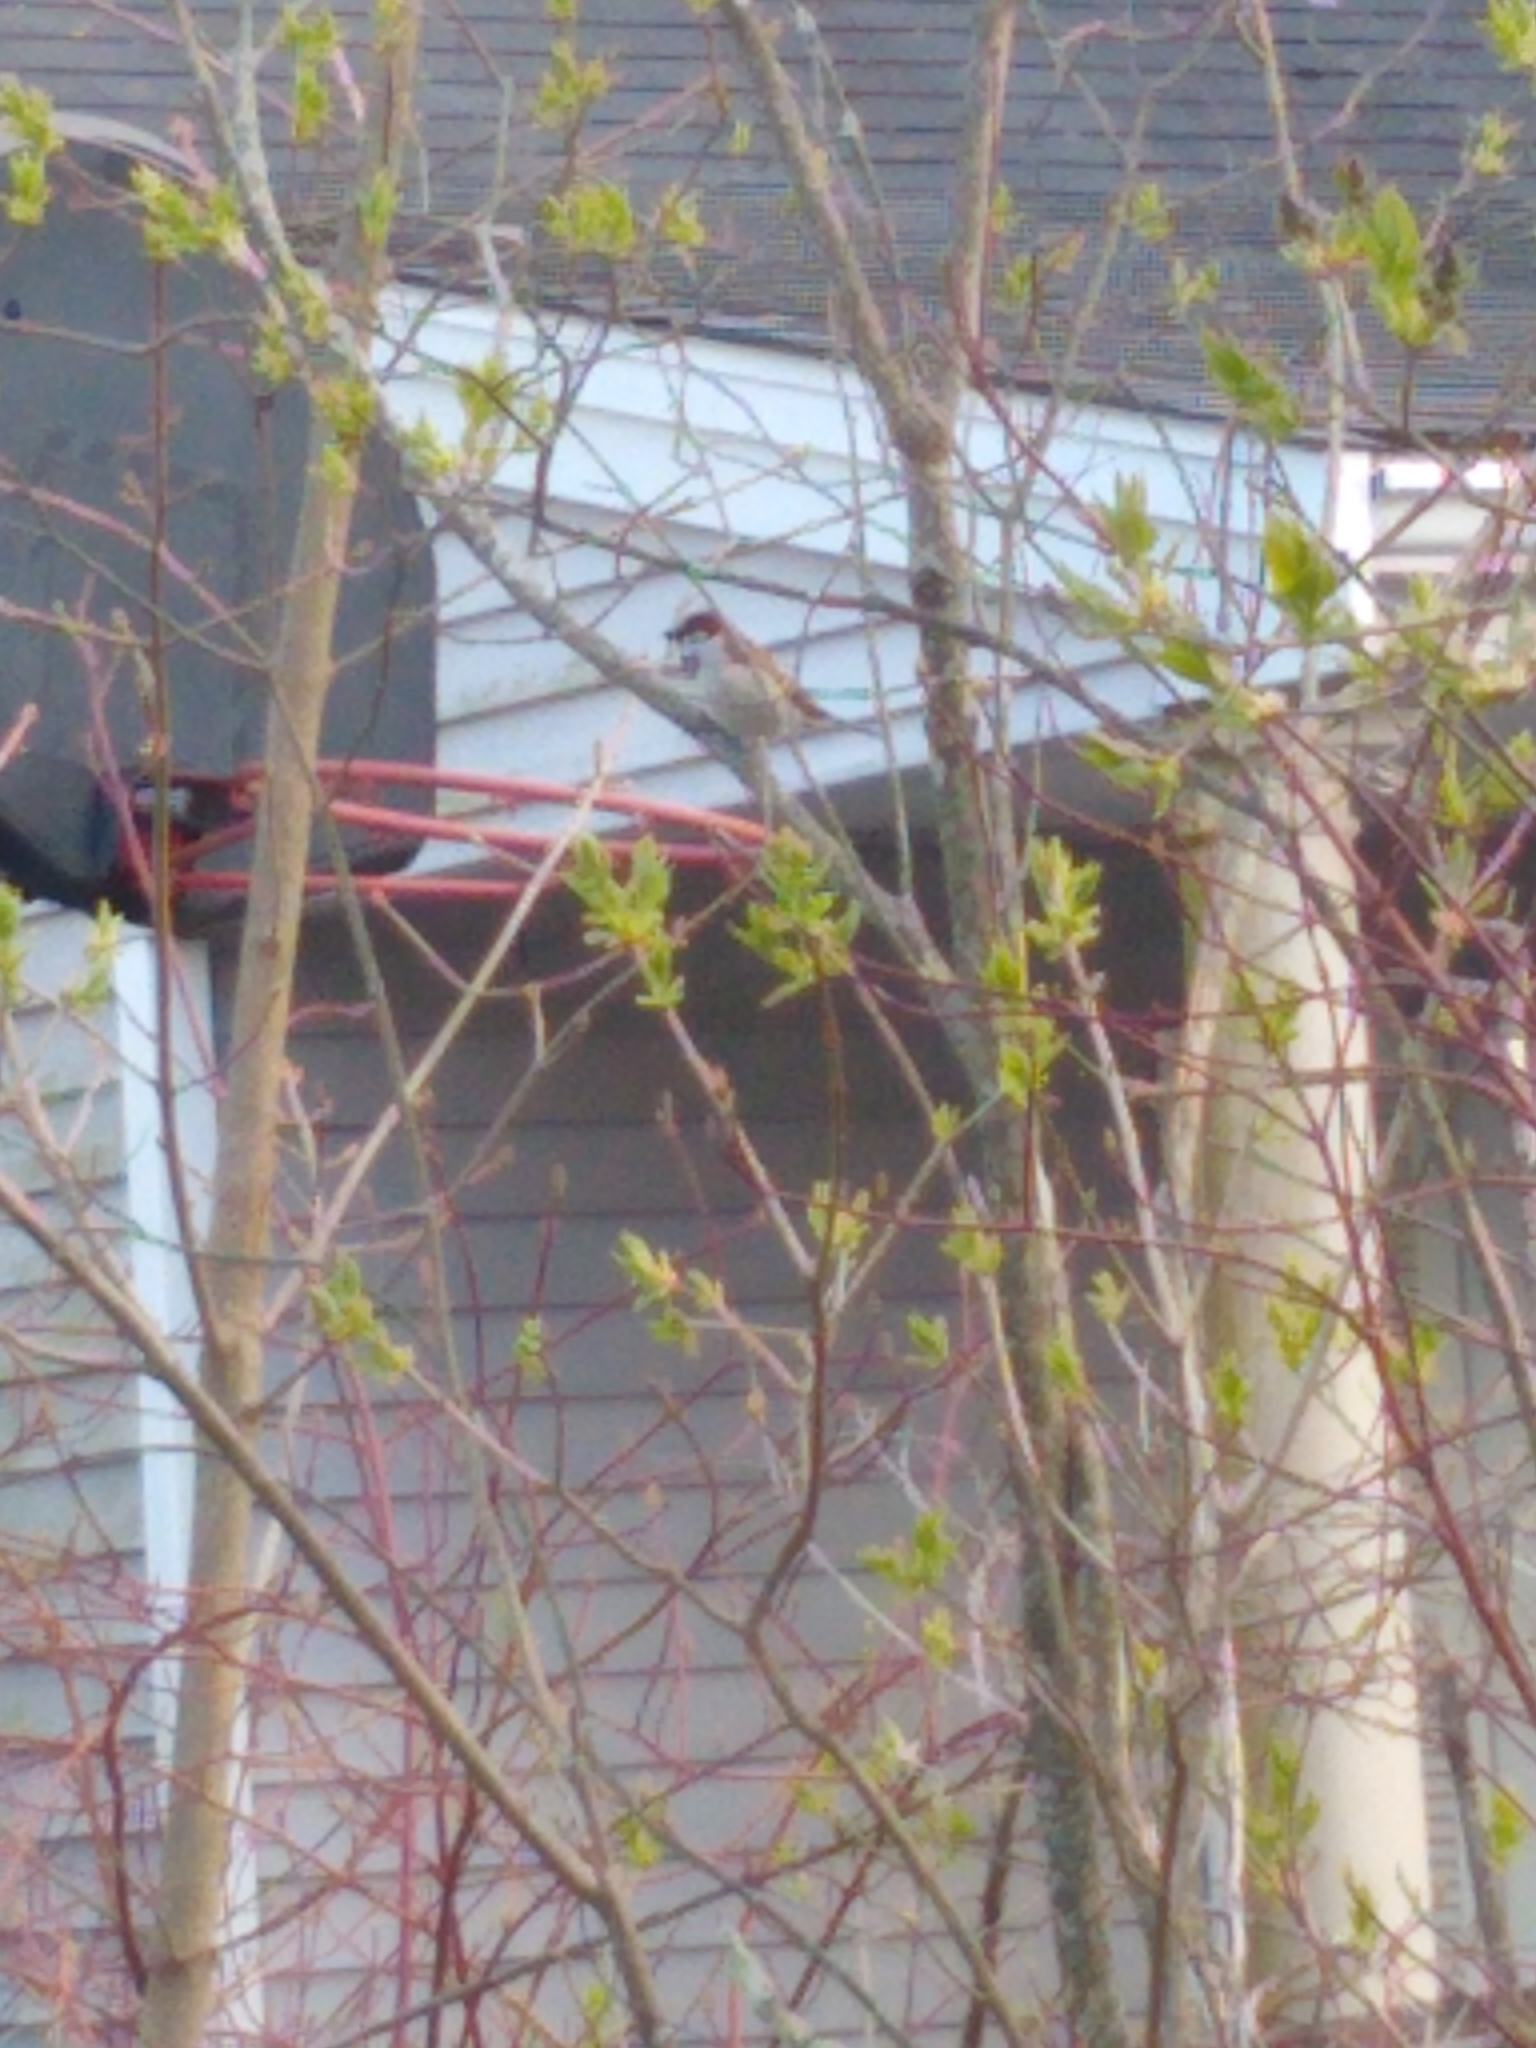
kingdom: Animalia
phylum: Chordata
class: Aves
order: Passeriformes
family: Passeridae
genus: Passer
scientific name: Passer domesticus
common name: House sparrow
